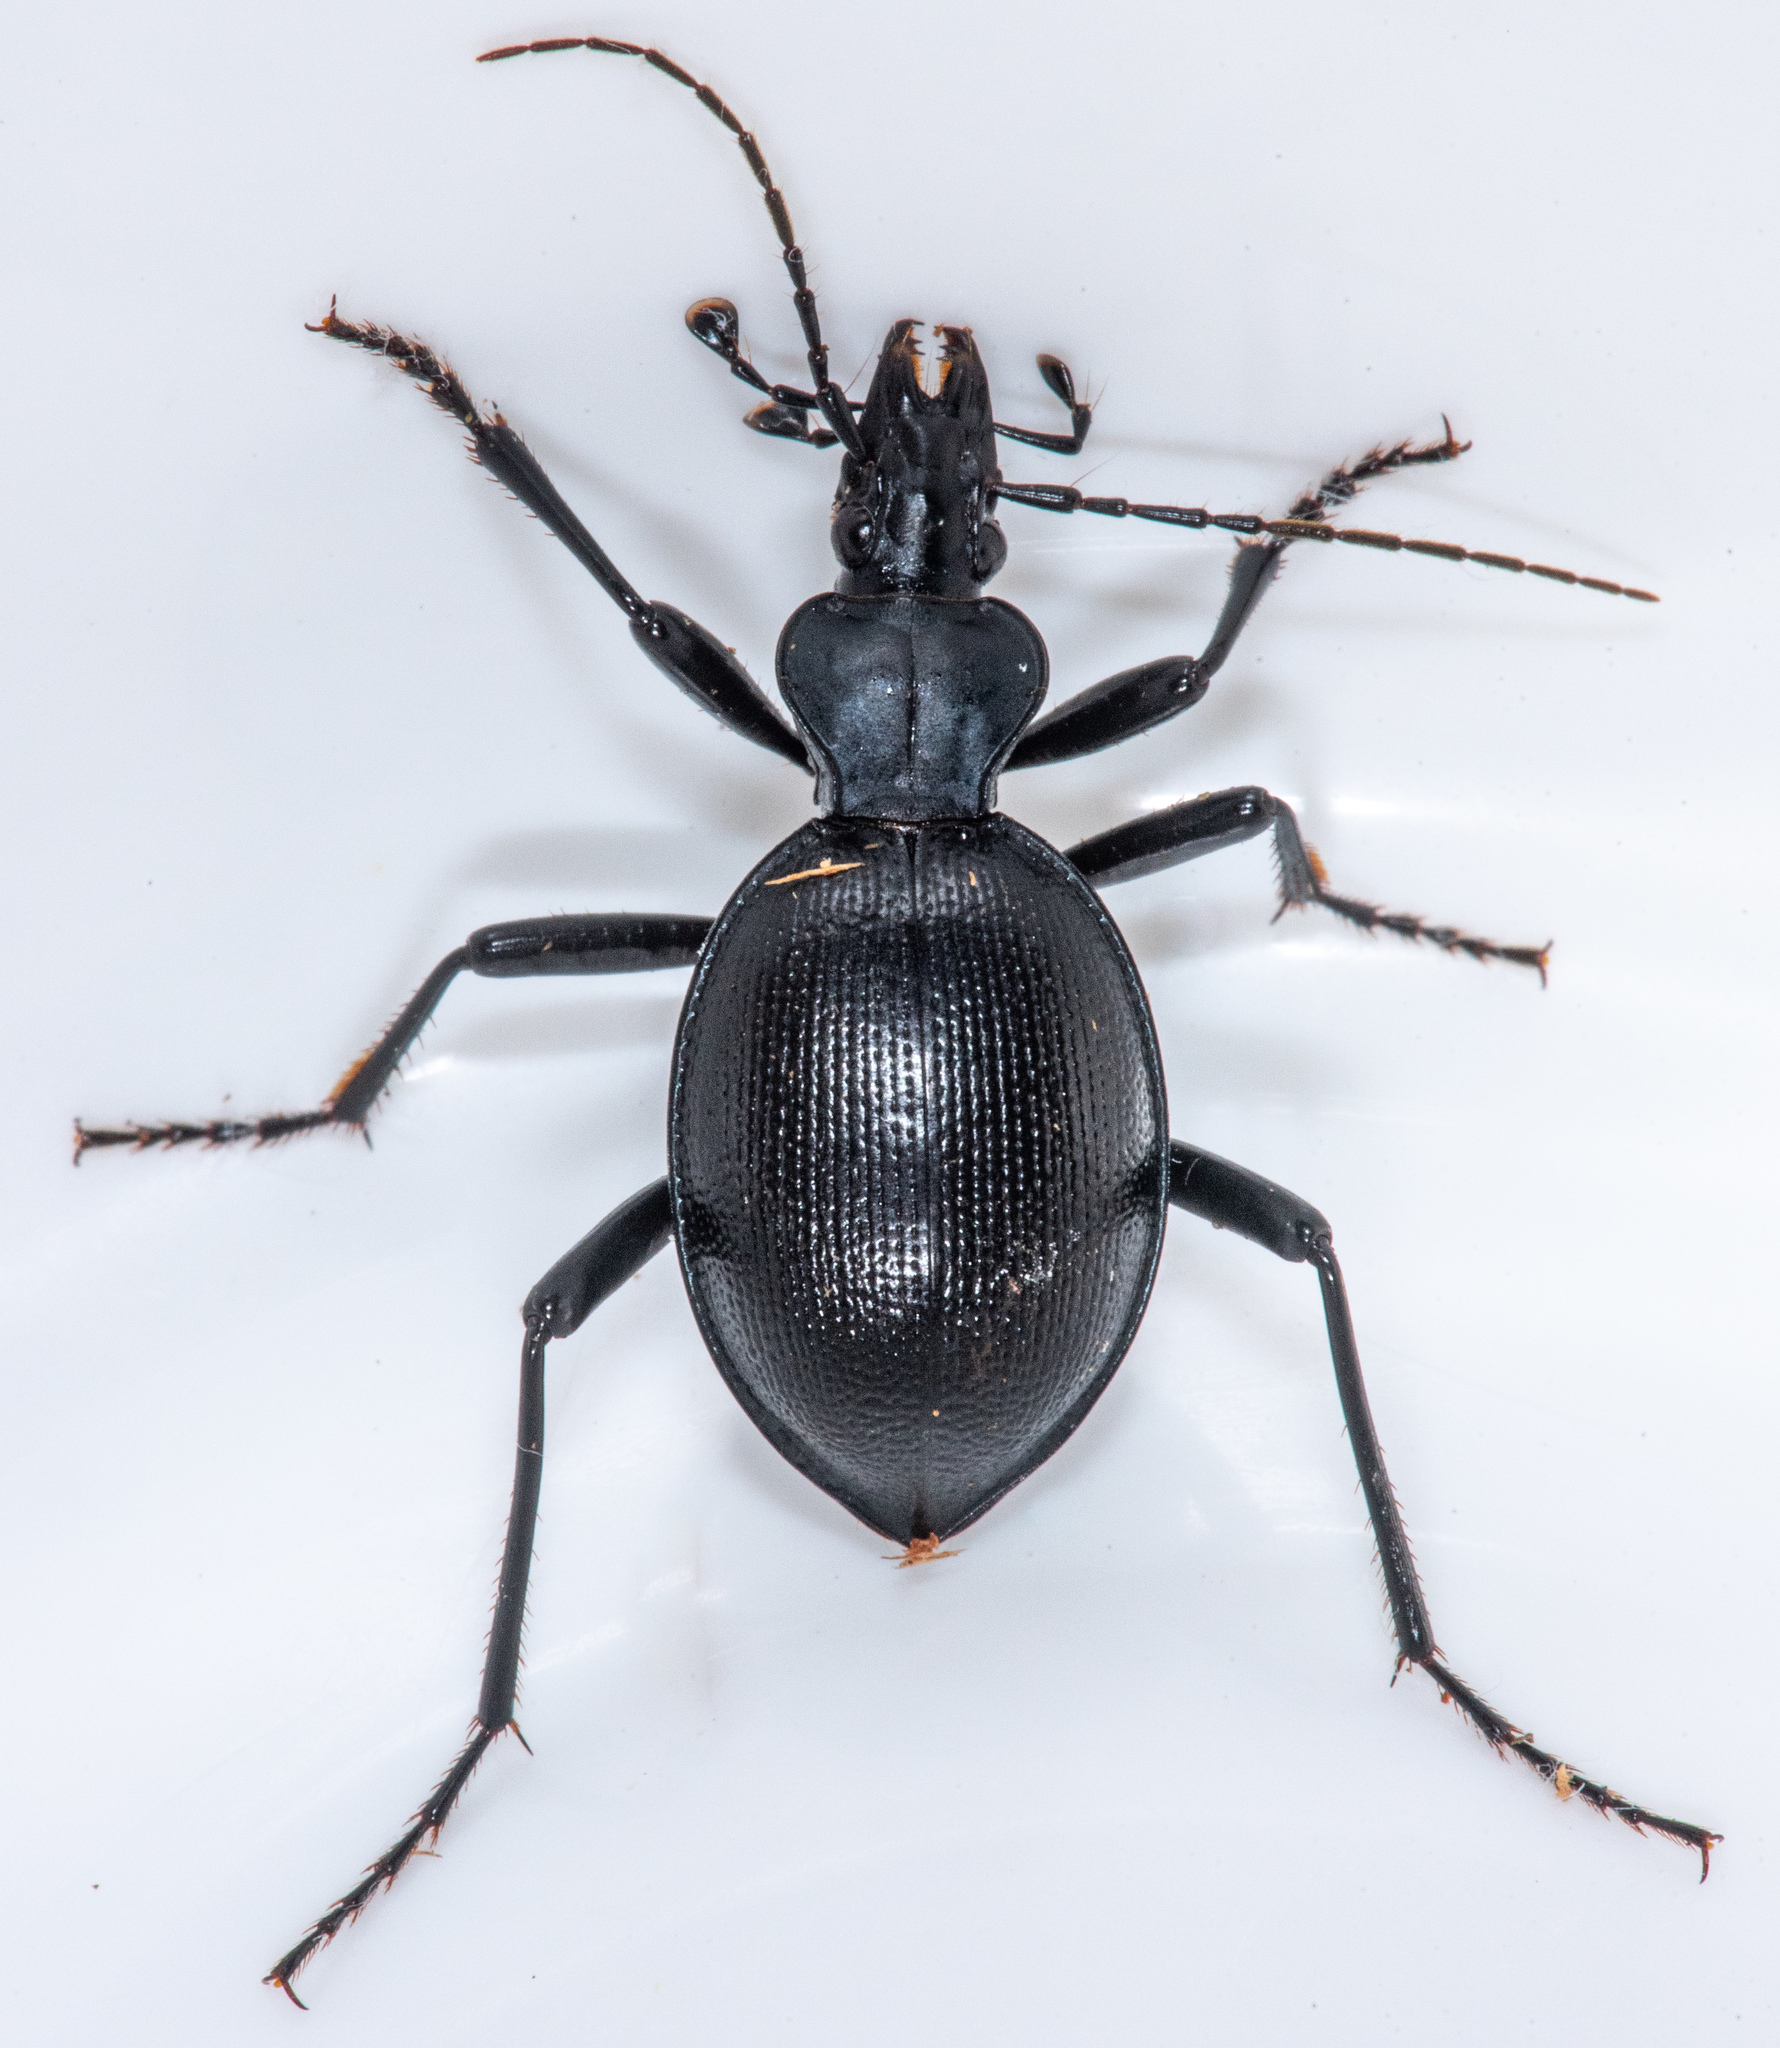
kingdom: Animalia
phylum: Arthropoda
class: Insecta
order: Coleoptera
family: Carabidae
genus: Scaphinotus
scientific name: Scaphinotus striatopunctatus
